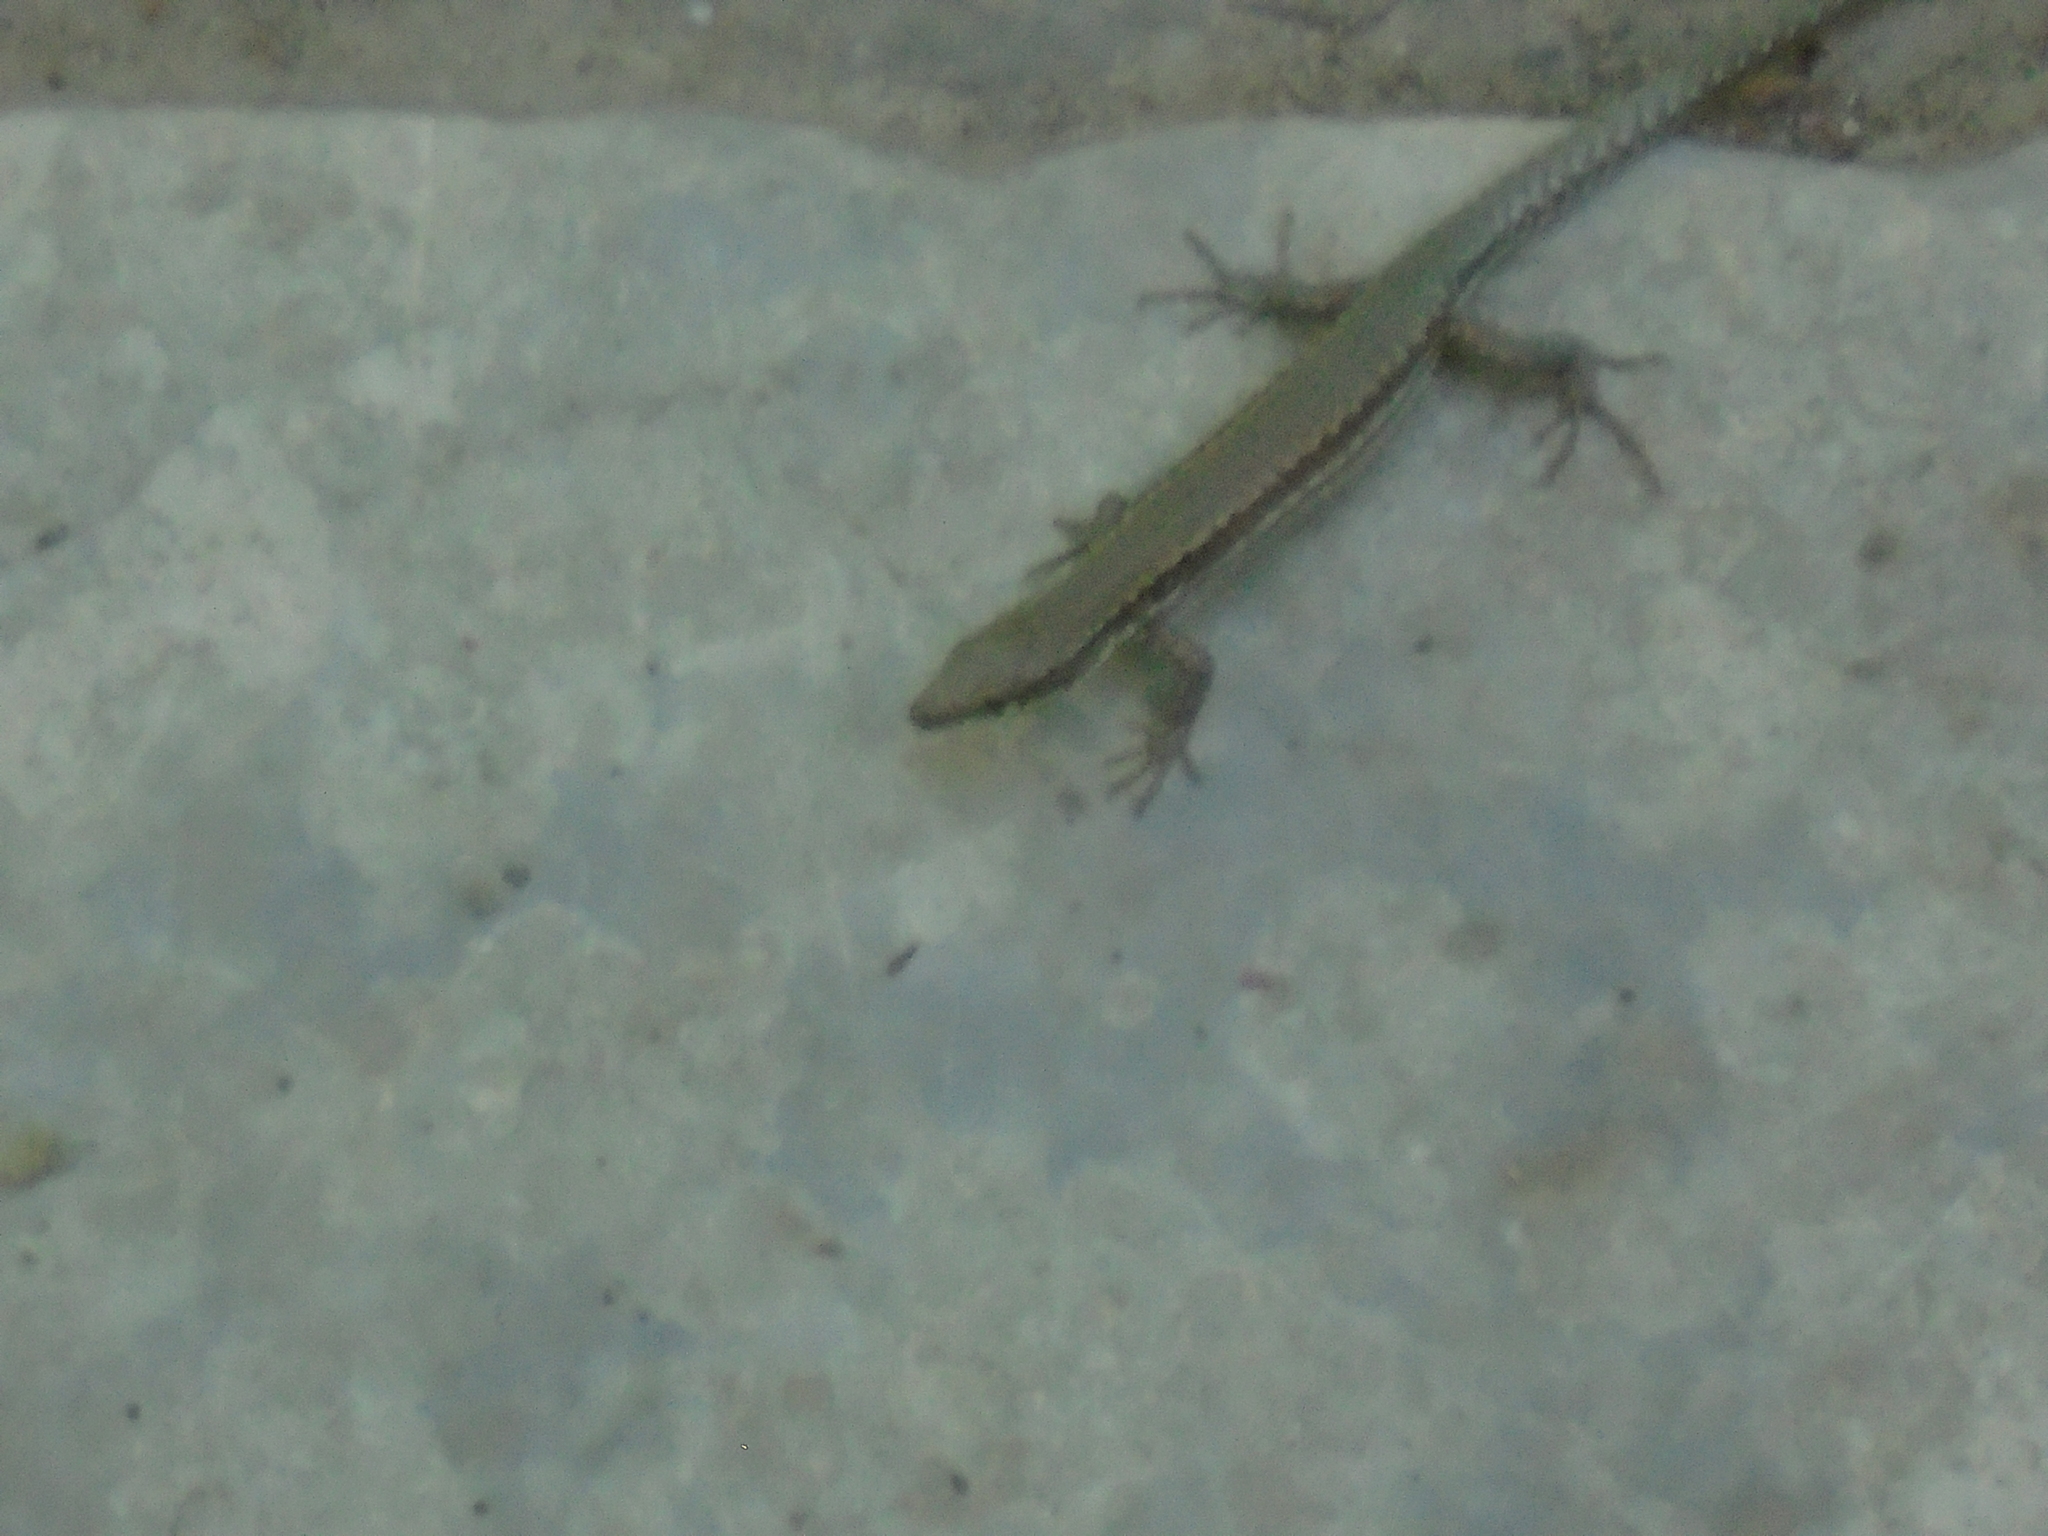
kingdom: Animalia
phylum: Chordata
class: Squamata
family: Lacertidae
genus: Podarcis
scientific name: Podarcis muralis
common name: Common wall lizard
